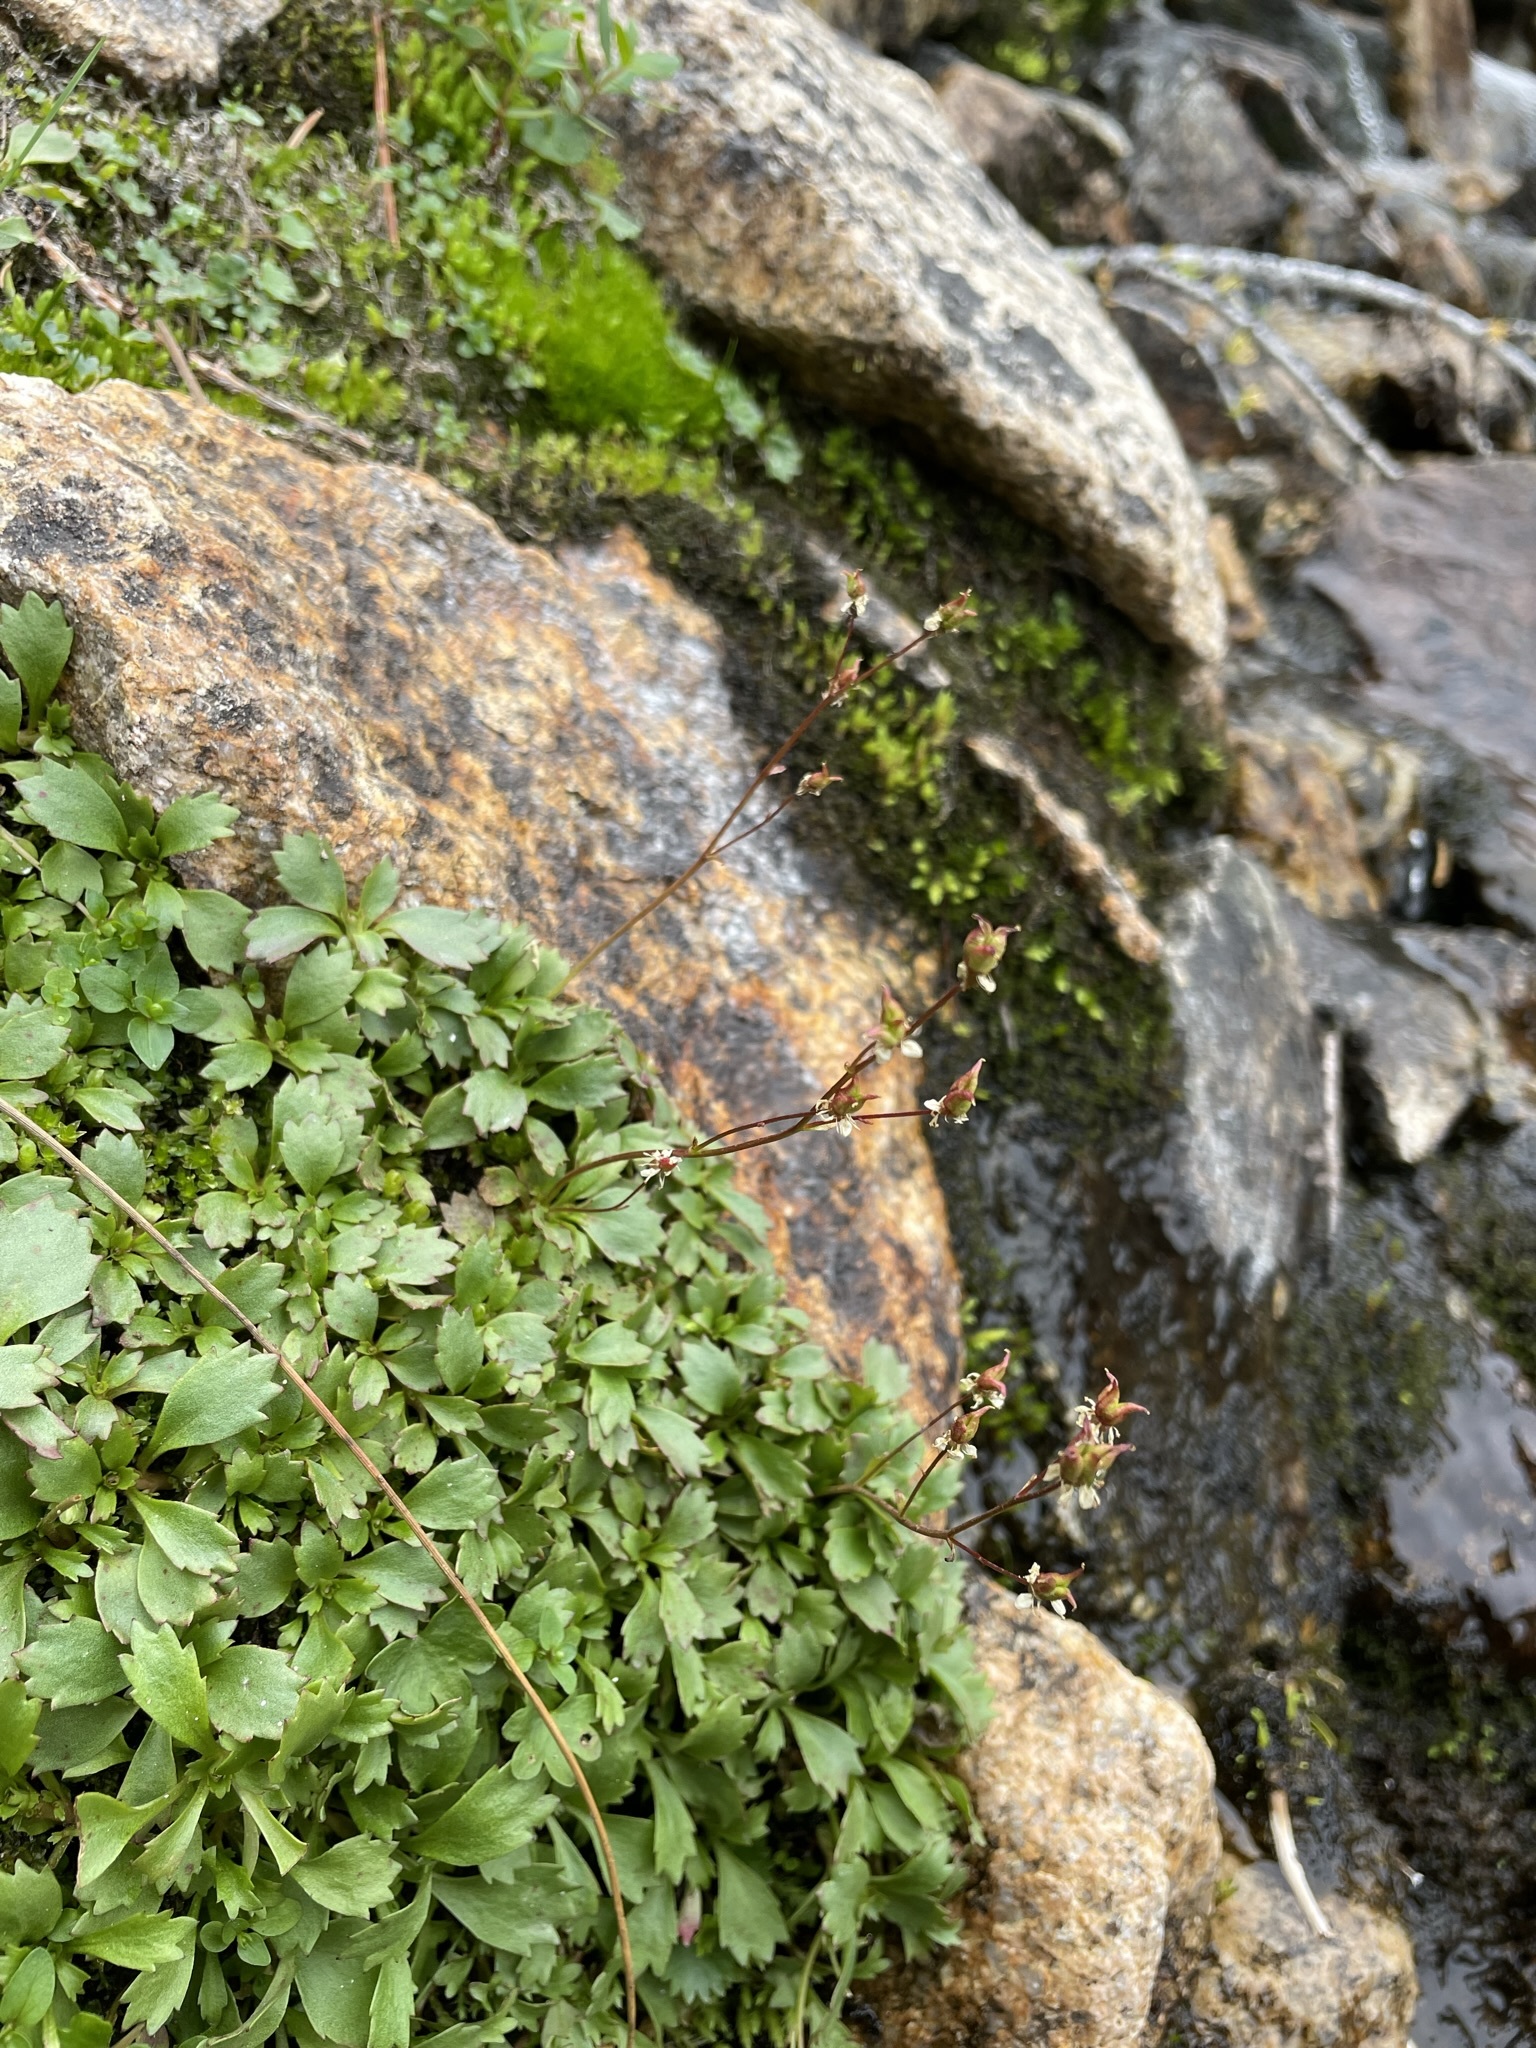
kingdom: Plantae
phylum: Tracheophyta
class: Magnoliopsida
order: Saxifragales
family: Saxifragaceae
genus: Micranthes
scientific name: Micranthes lyallii
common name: Lyall's saxifrage
